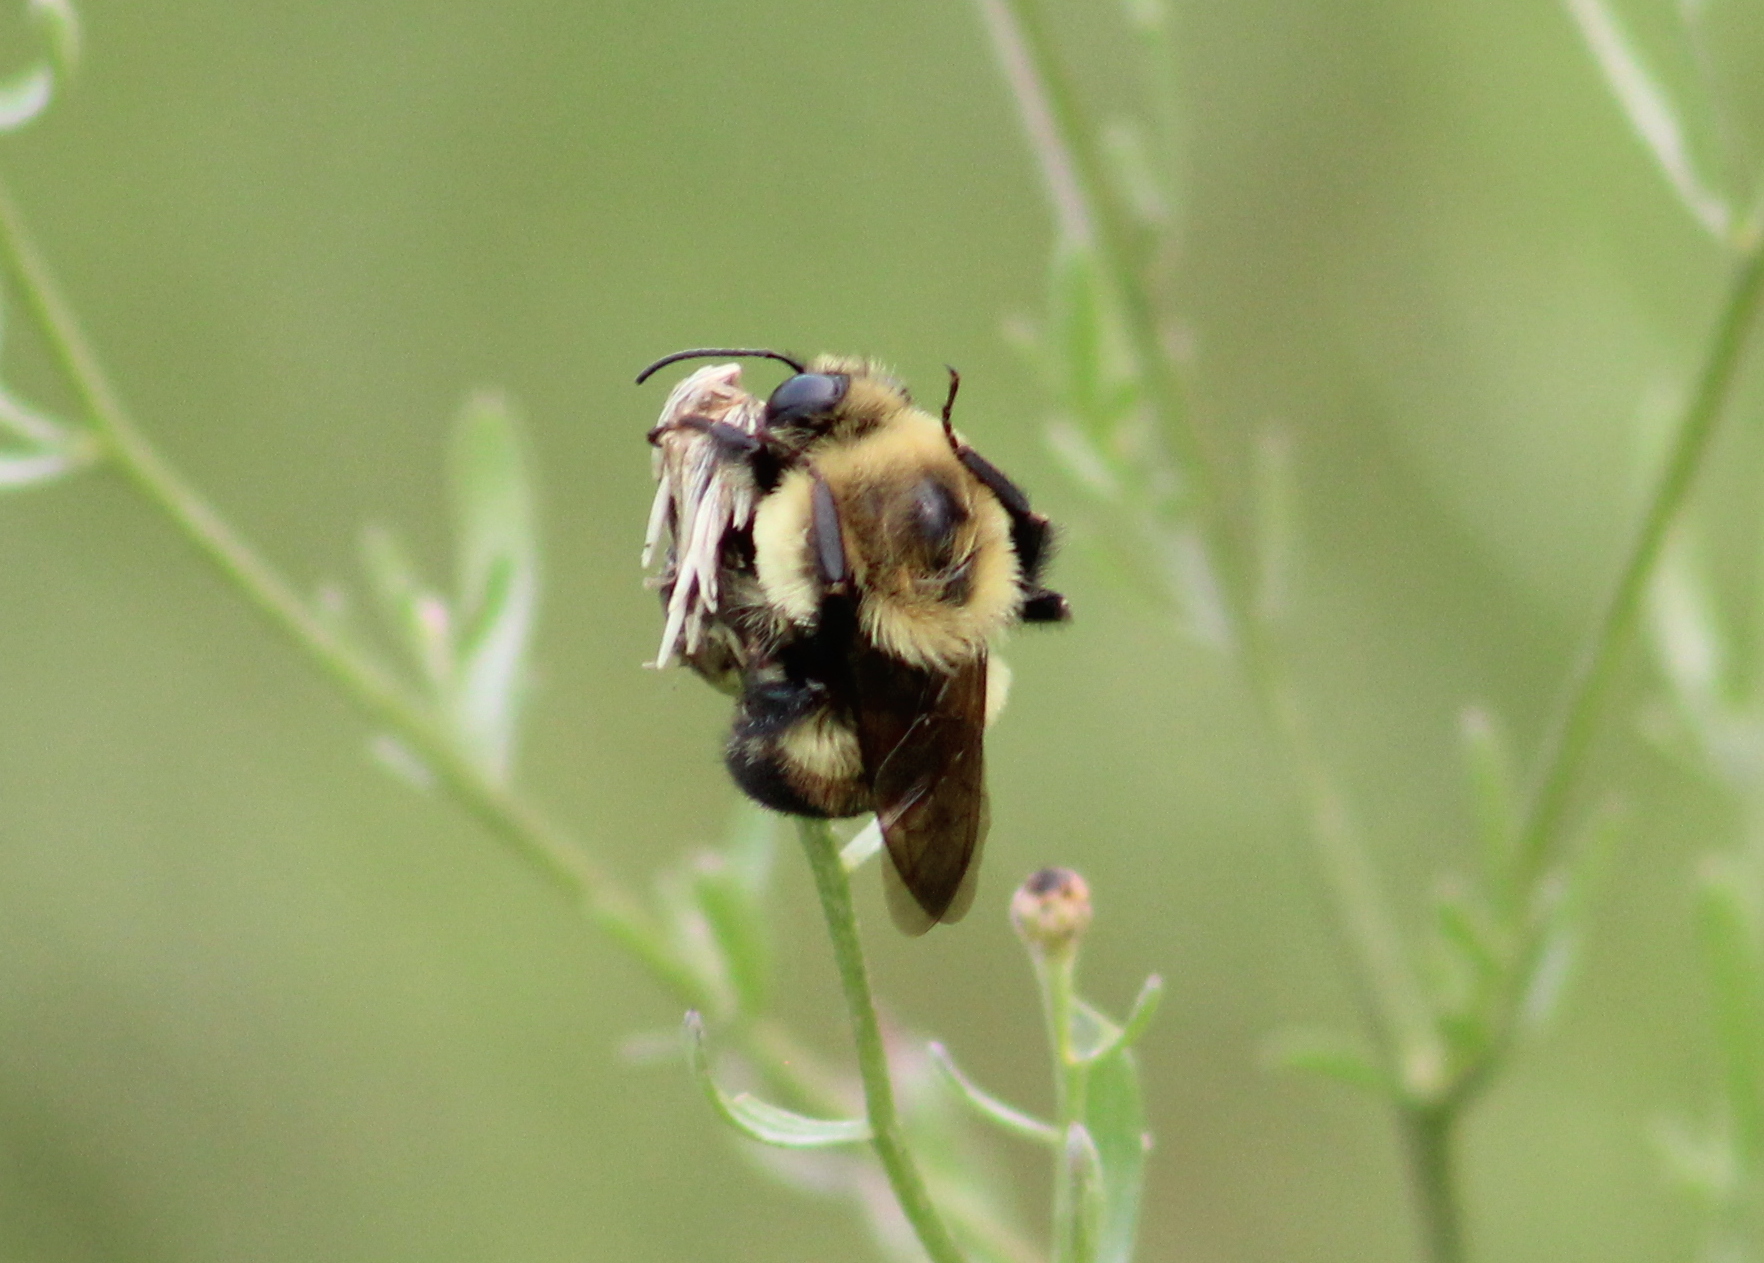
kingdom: Animalia
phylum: Arthropoda
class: Insecta
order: Hymenoptera
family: Apidae
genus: Bombus
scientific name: Bombus griseocollis
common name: Brown-belted bumble bee
